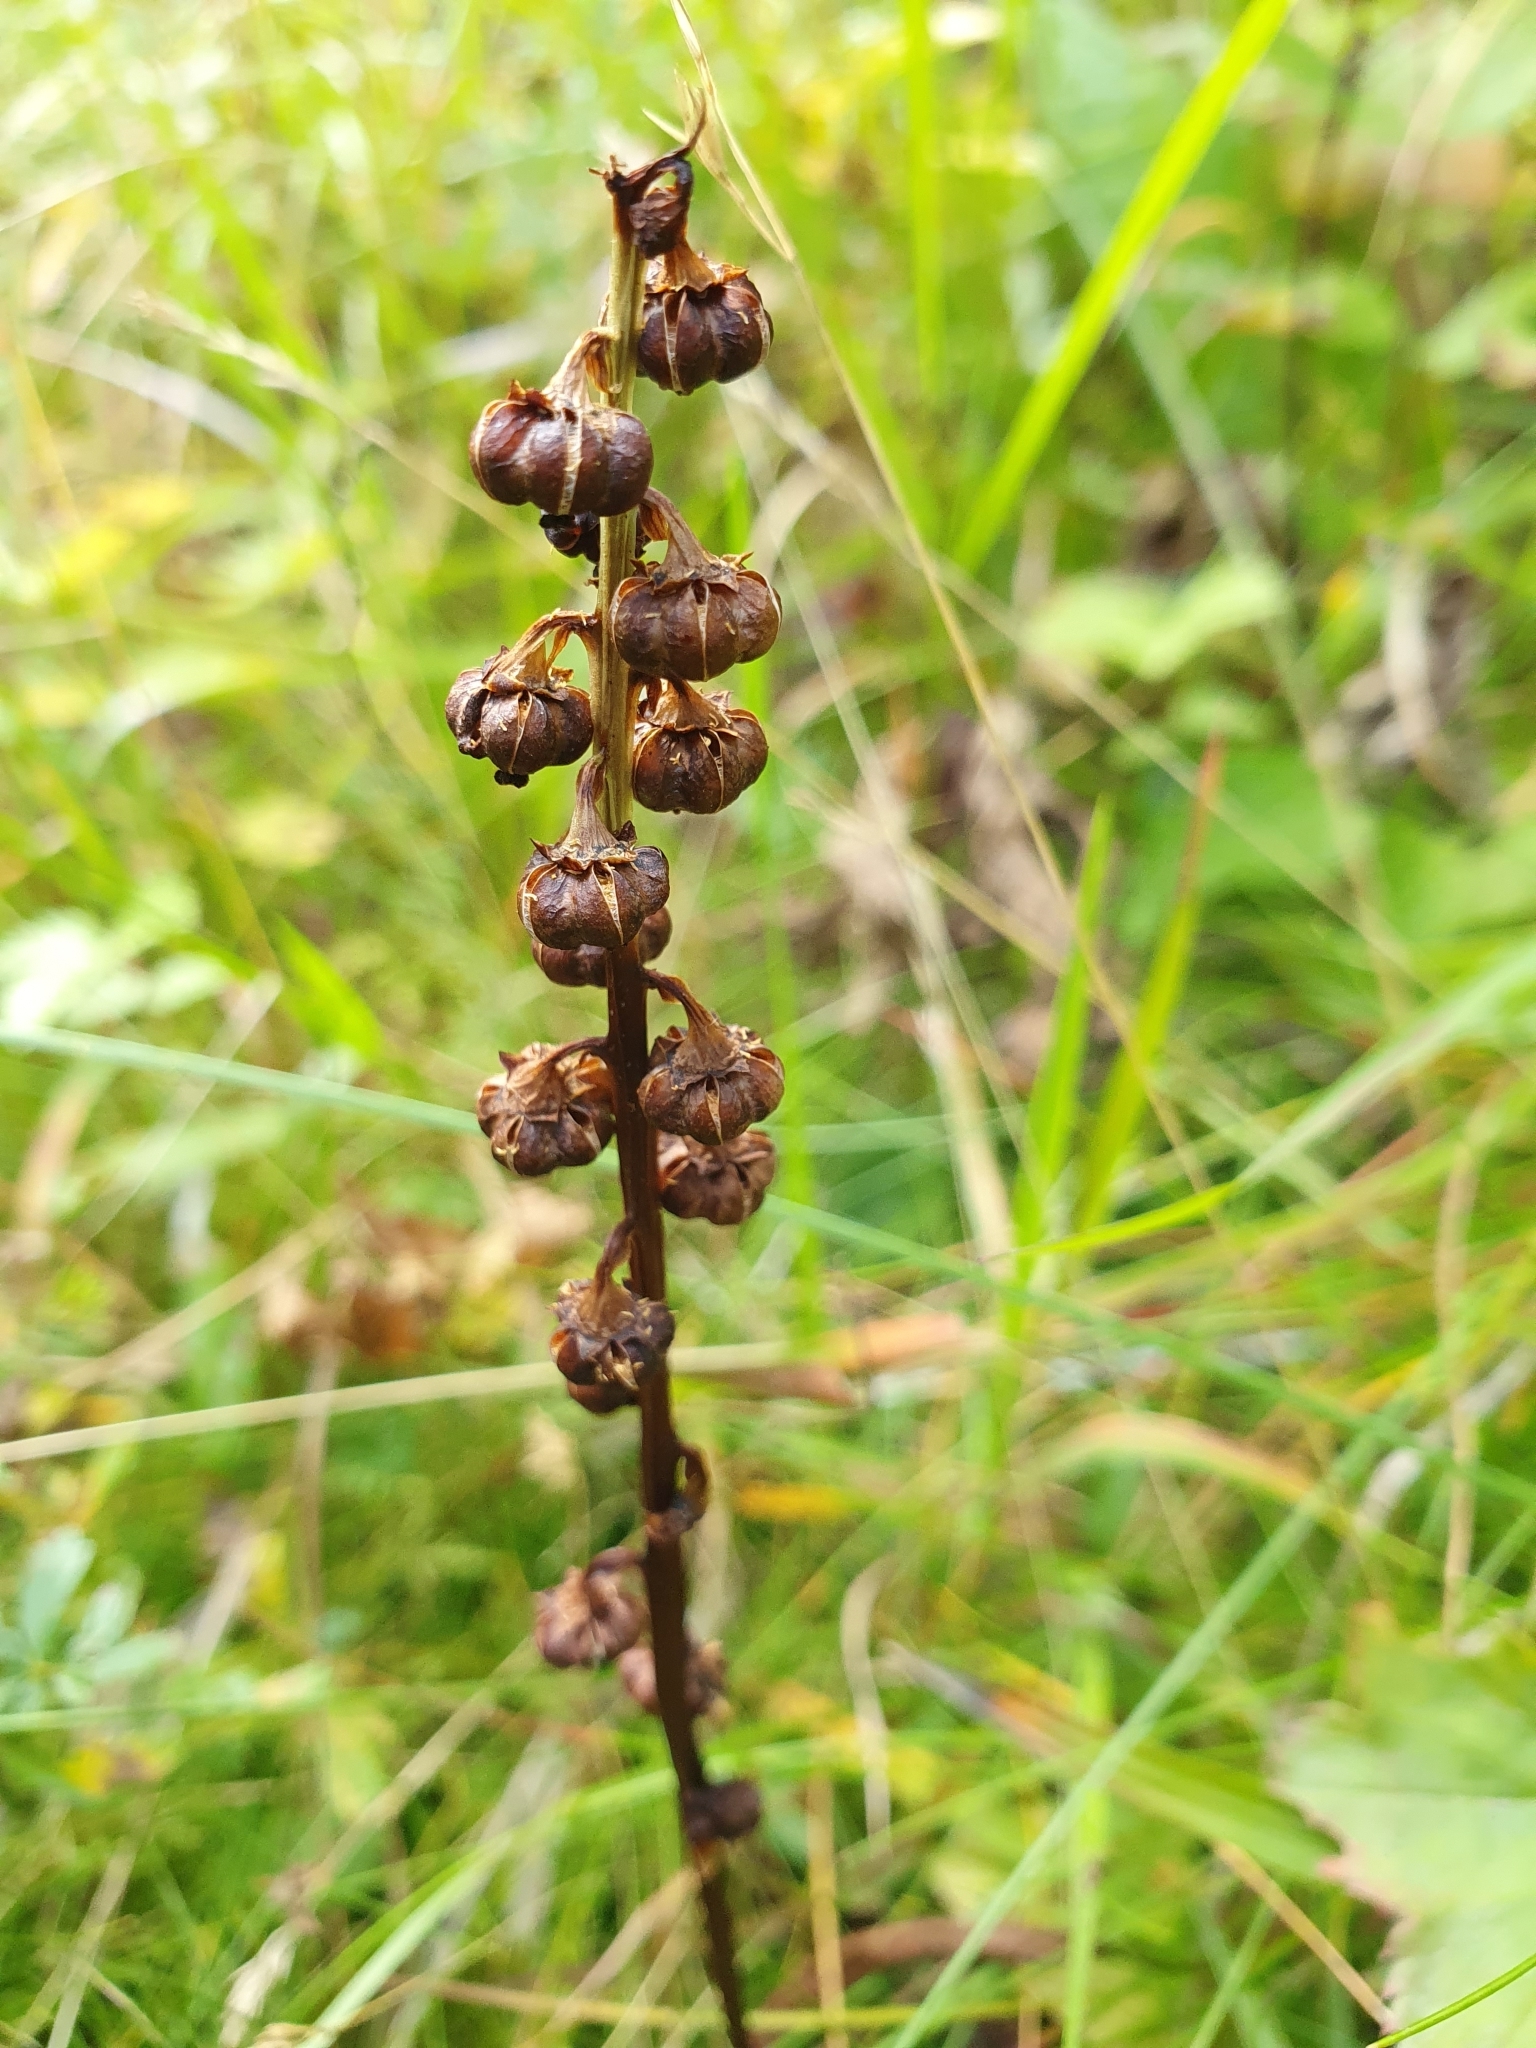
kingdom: Plantae
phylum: Tracheophyta
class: Magnoliopsida
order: Ericales
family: Ericaceae
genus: Pyrola
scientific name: Pyrola minor
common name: Common wintergreen
